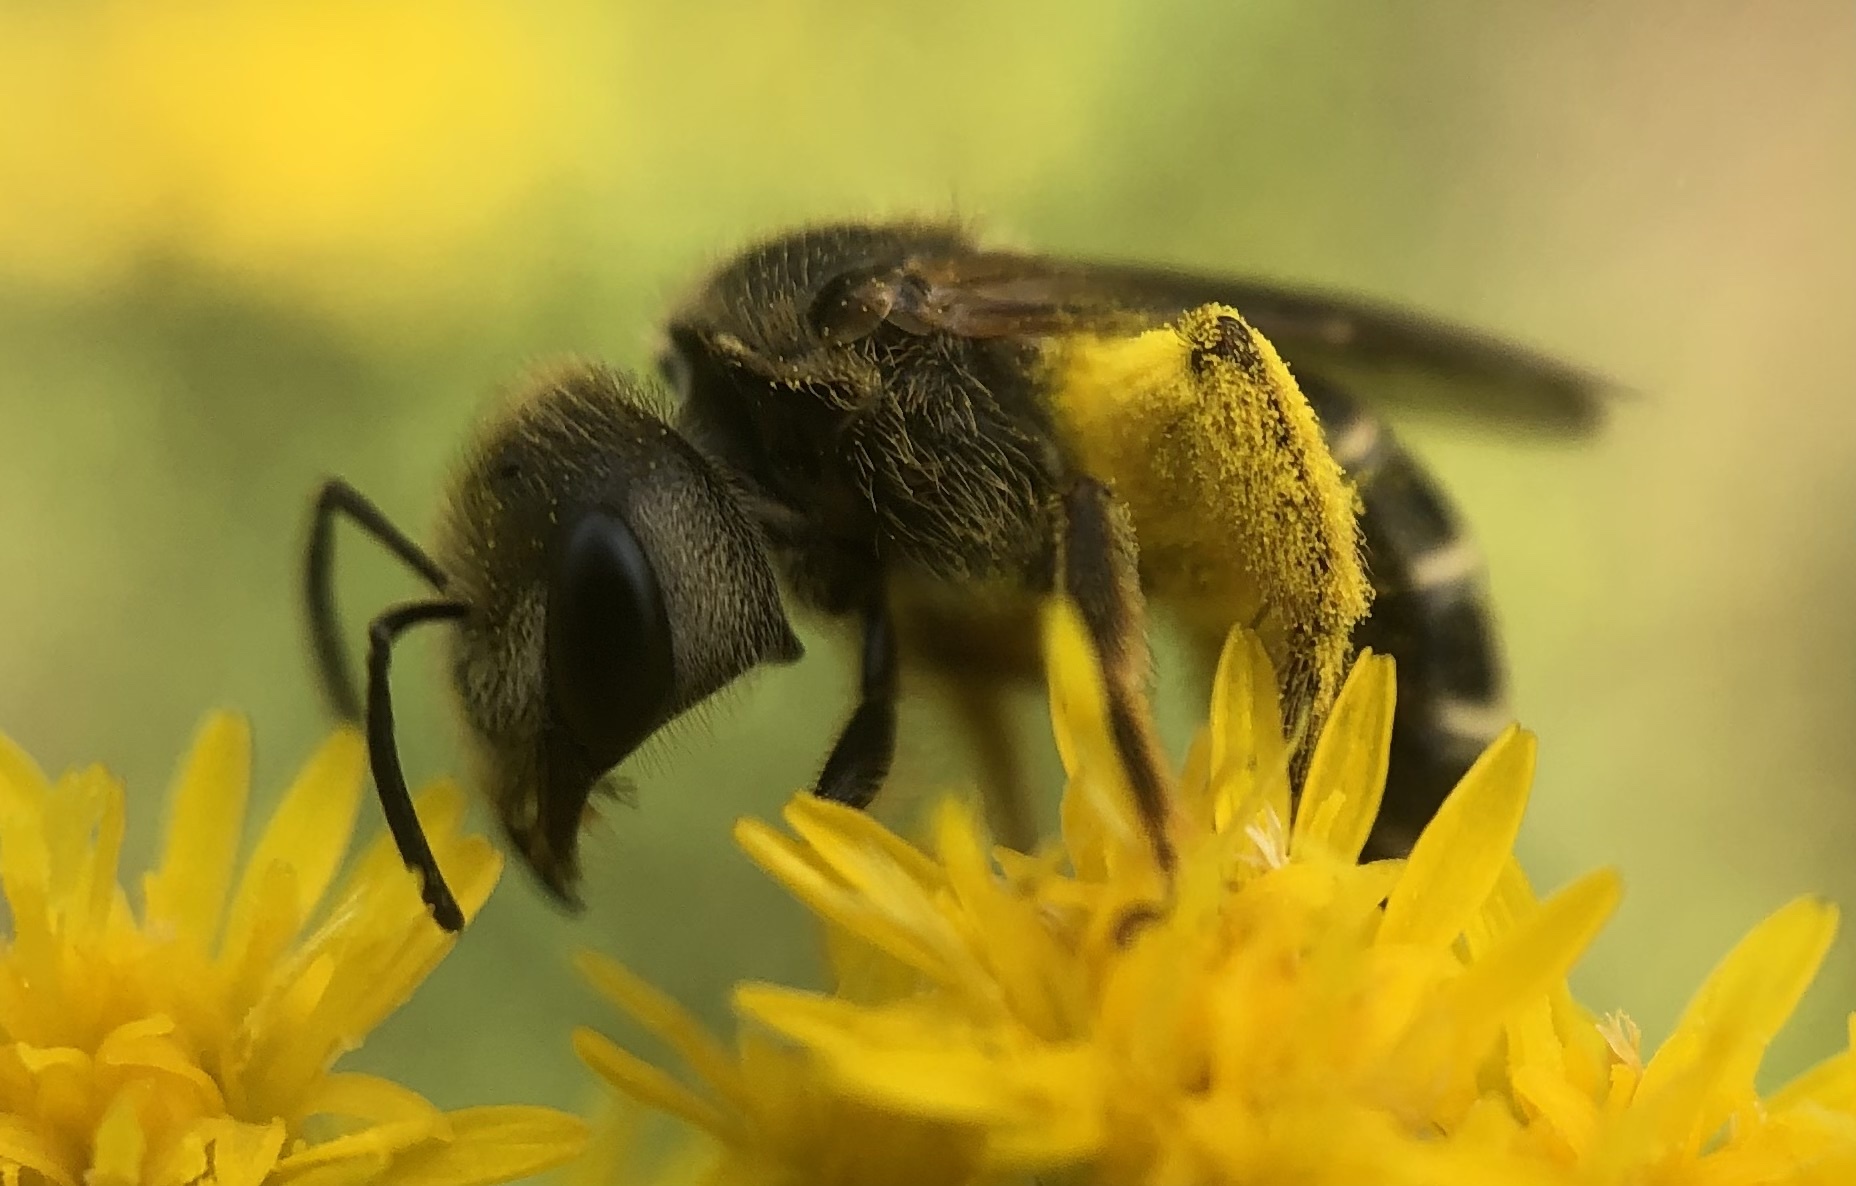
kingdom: Animalia
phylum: Arthropoda
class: Insecta
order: Hymenoptera
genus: Odontalictus
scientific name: Odontalictus
